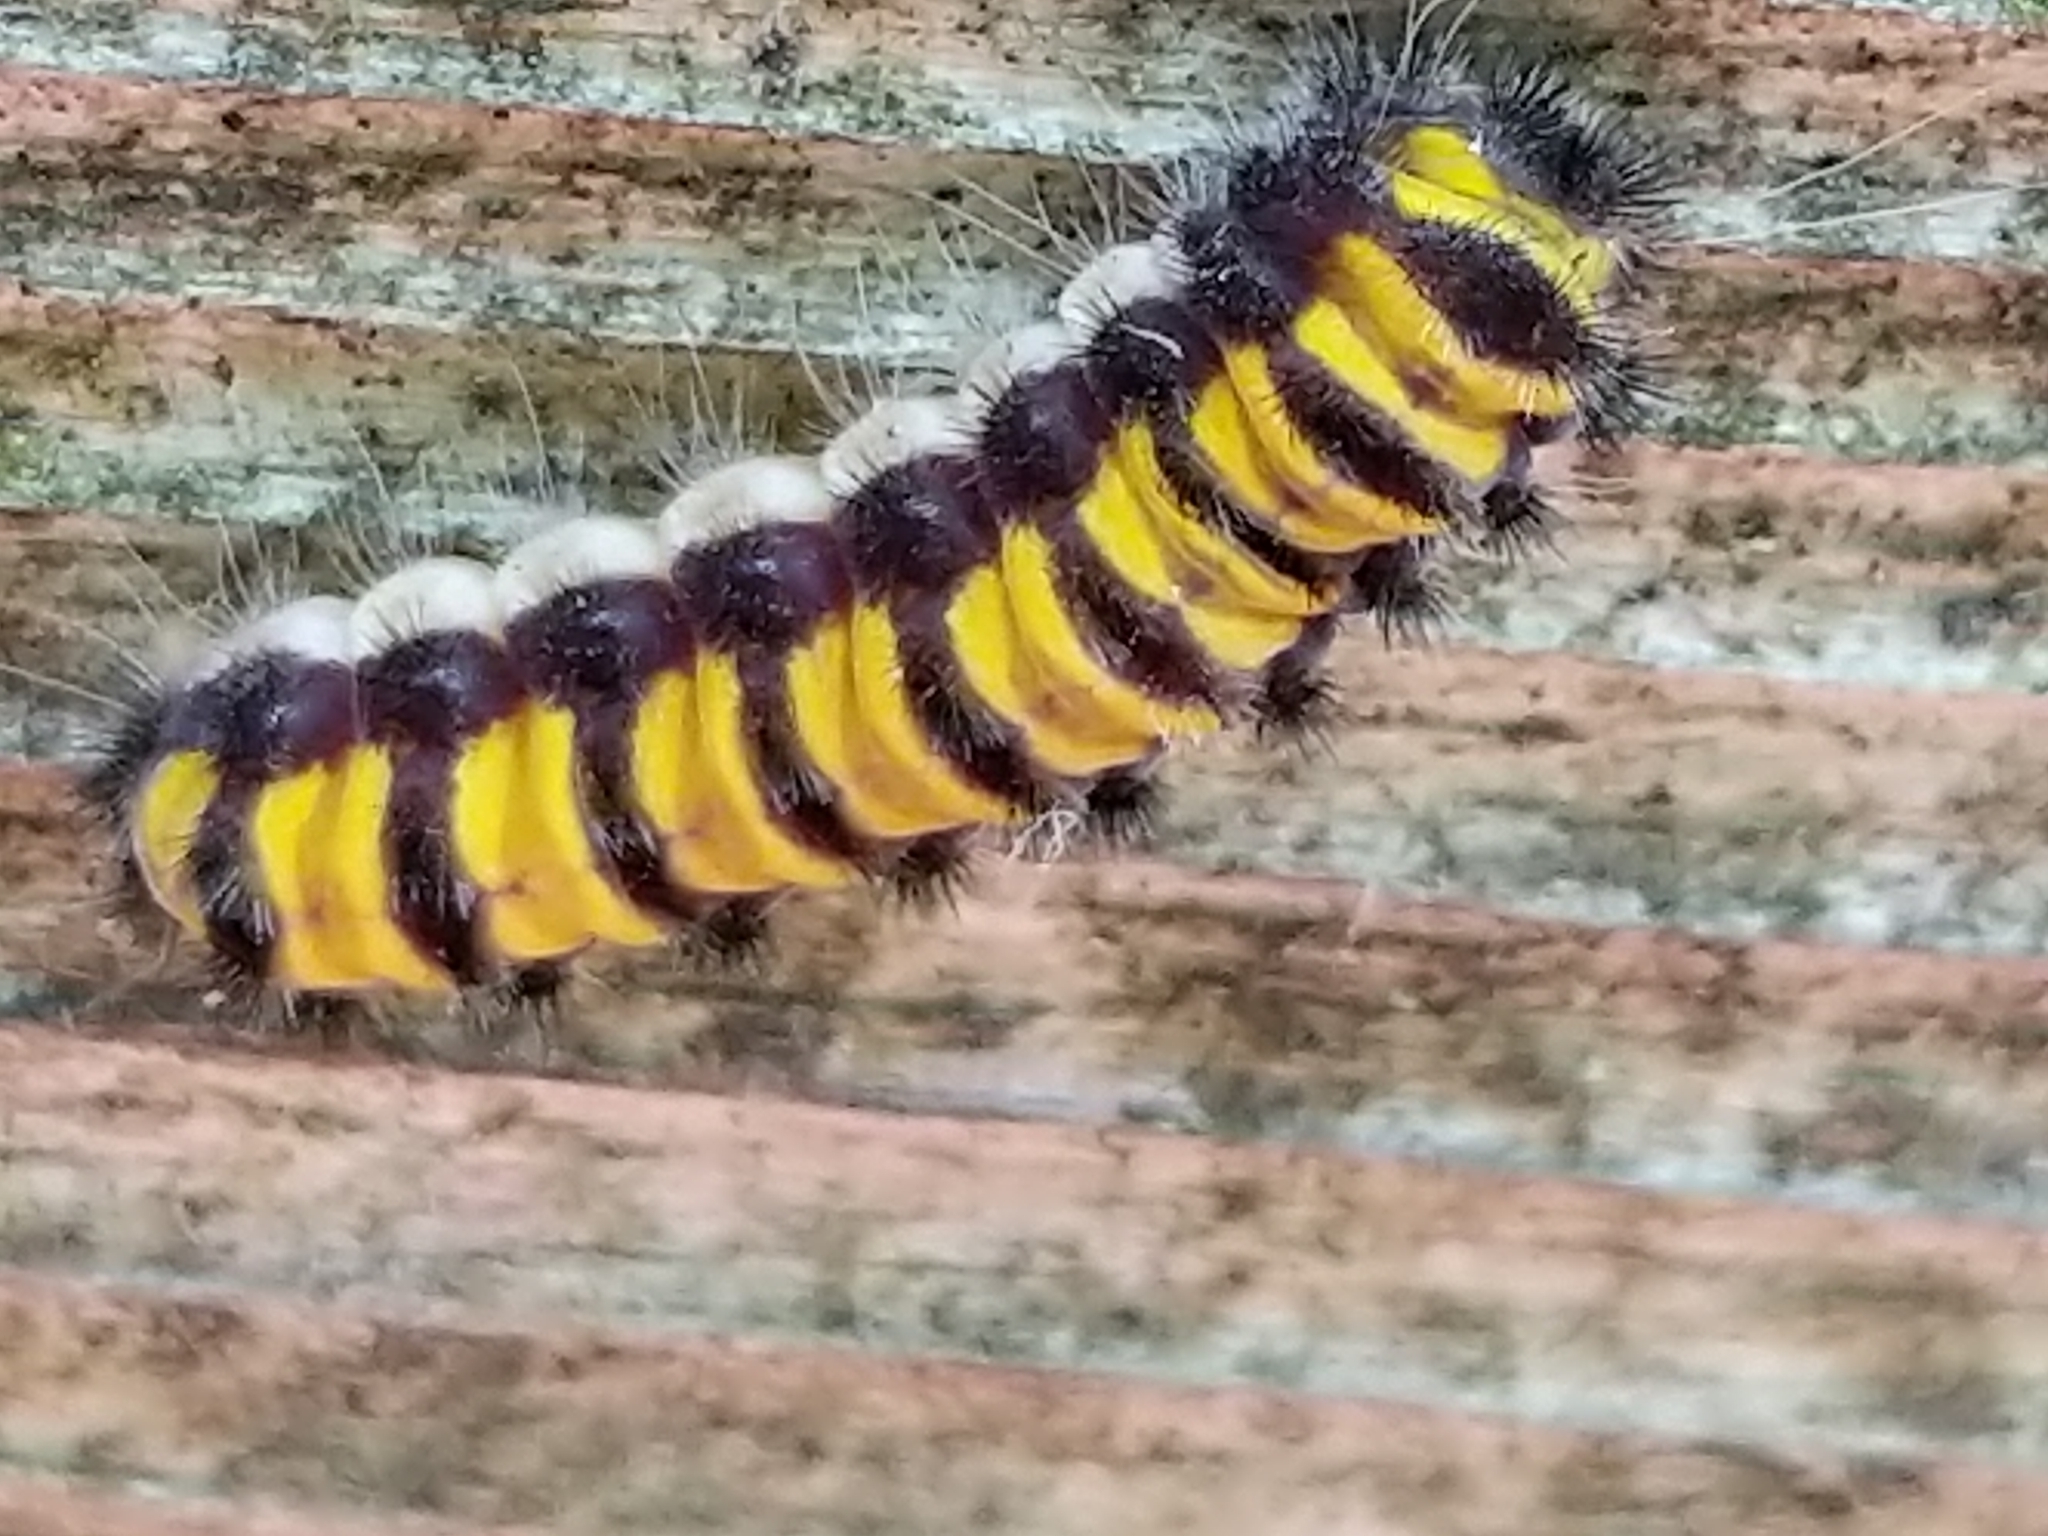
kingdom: Animalia
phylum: Arthropoda
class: Insecta
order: Lepidoptera
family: Zygaenidae
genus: Harrisina
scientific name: Harrisina americana
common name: Grapeleaf skeletonizer moth
